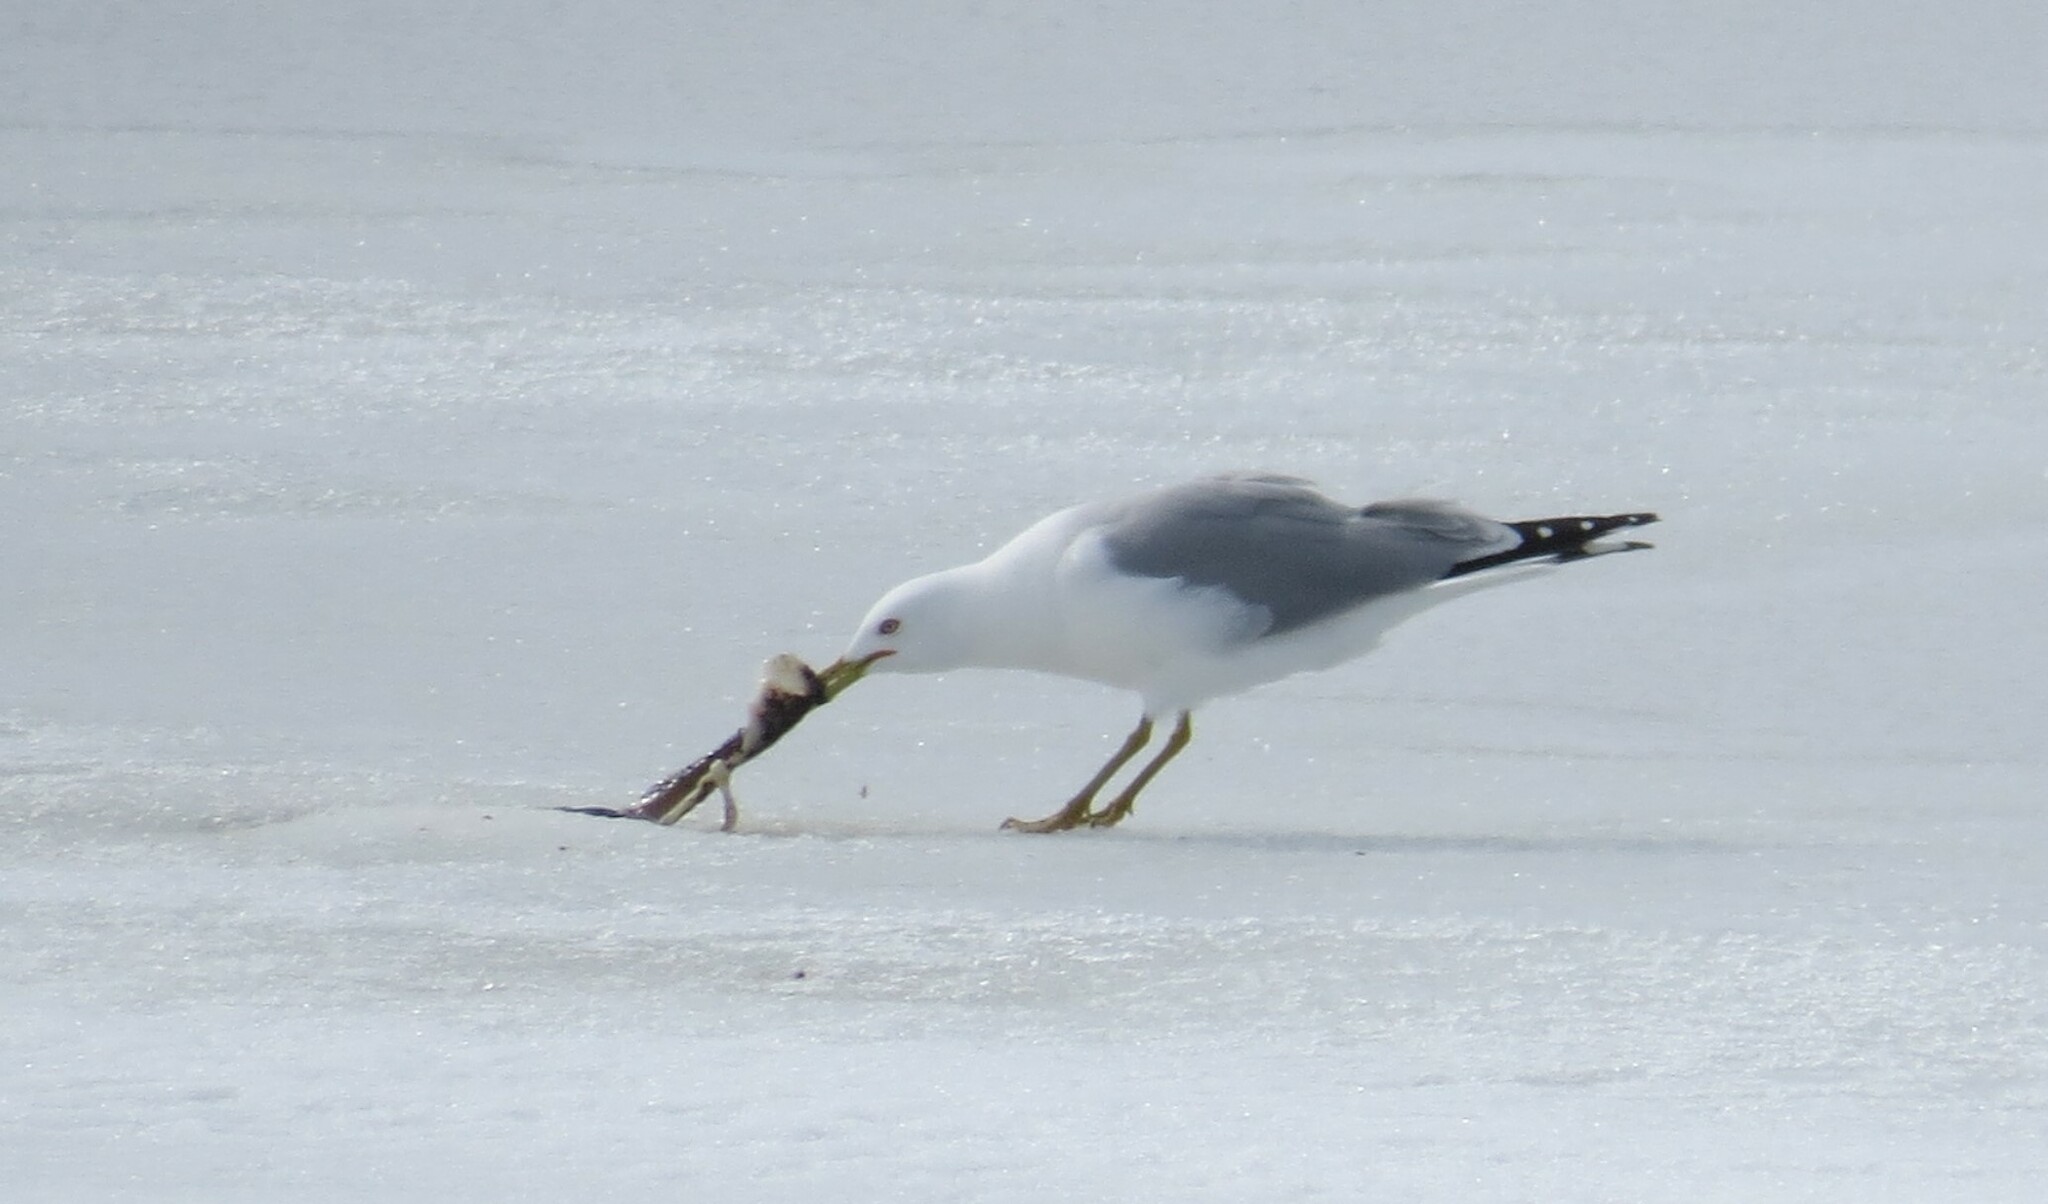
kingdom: Animalia
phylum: Chordata
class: Aves
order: Charadriiformes
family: Laridae
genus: Larus
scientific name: Larus delawarensis
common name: Ring-billed gull
